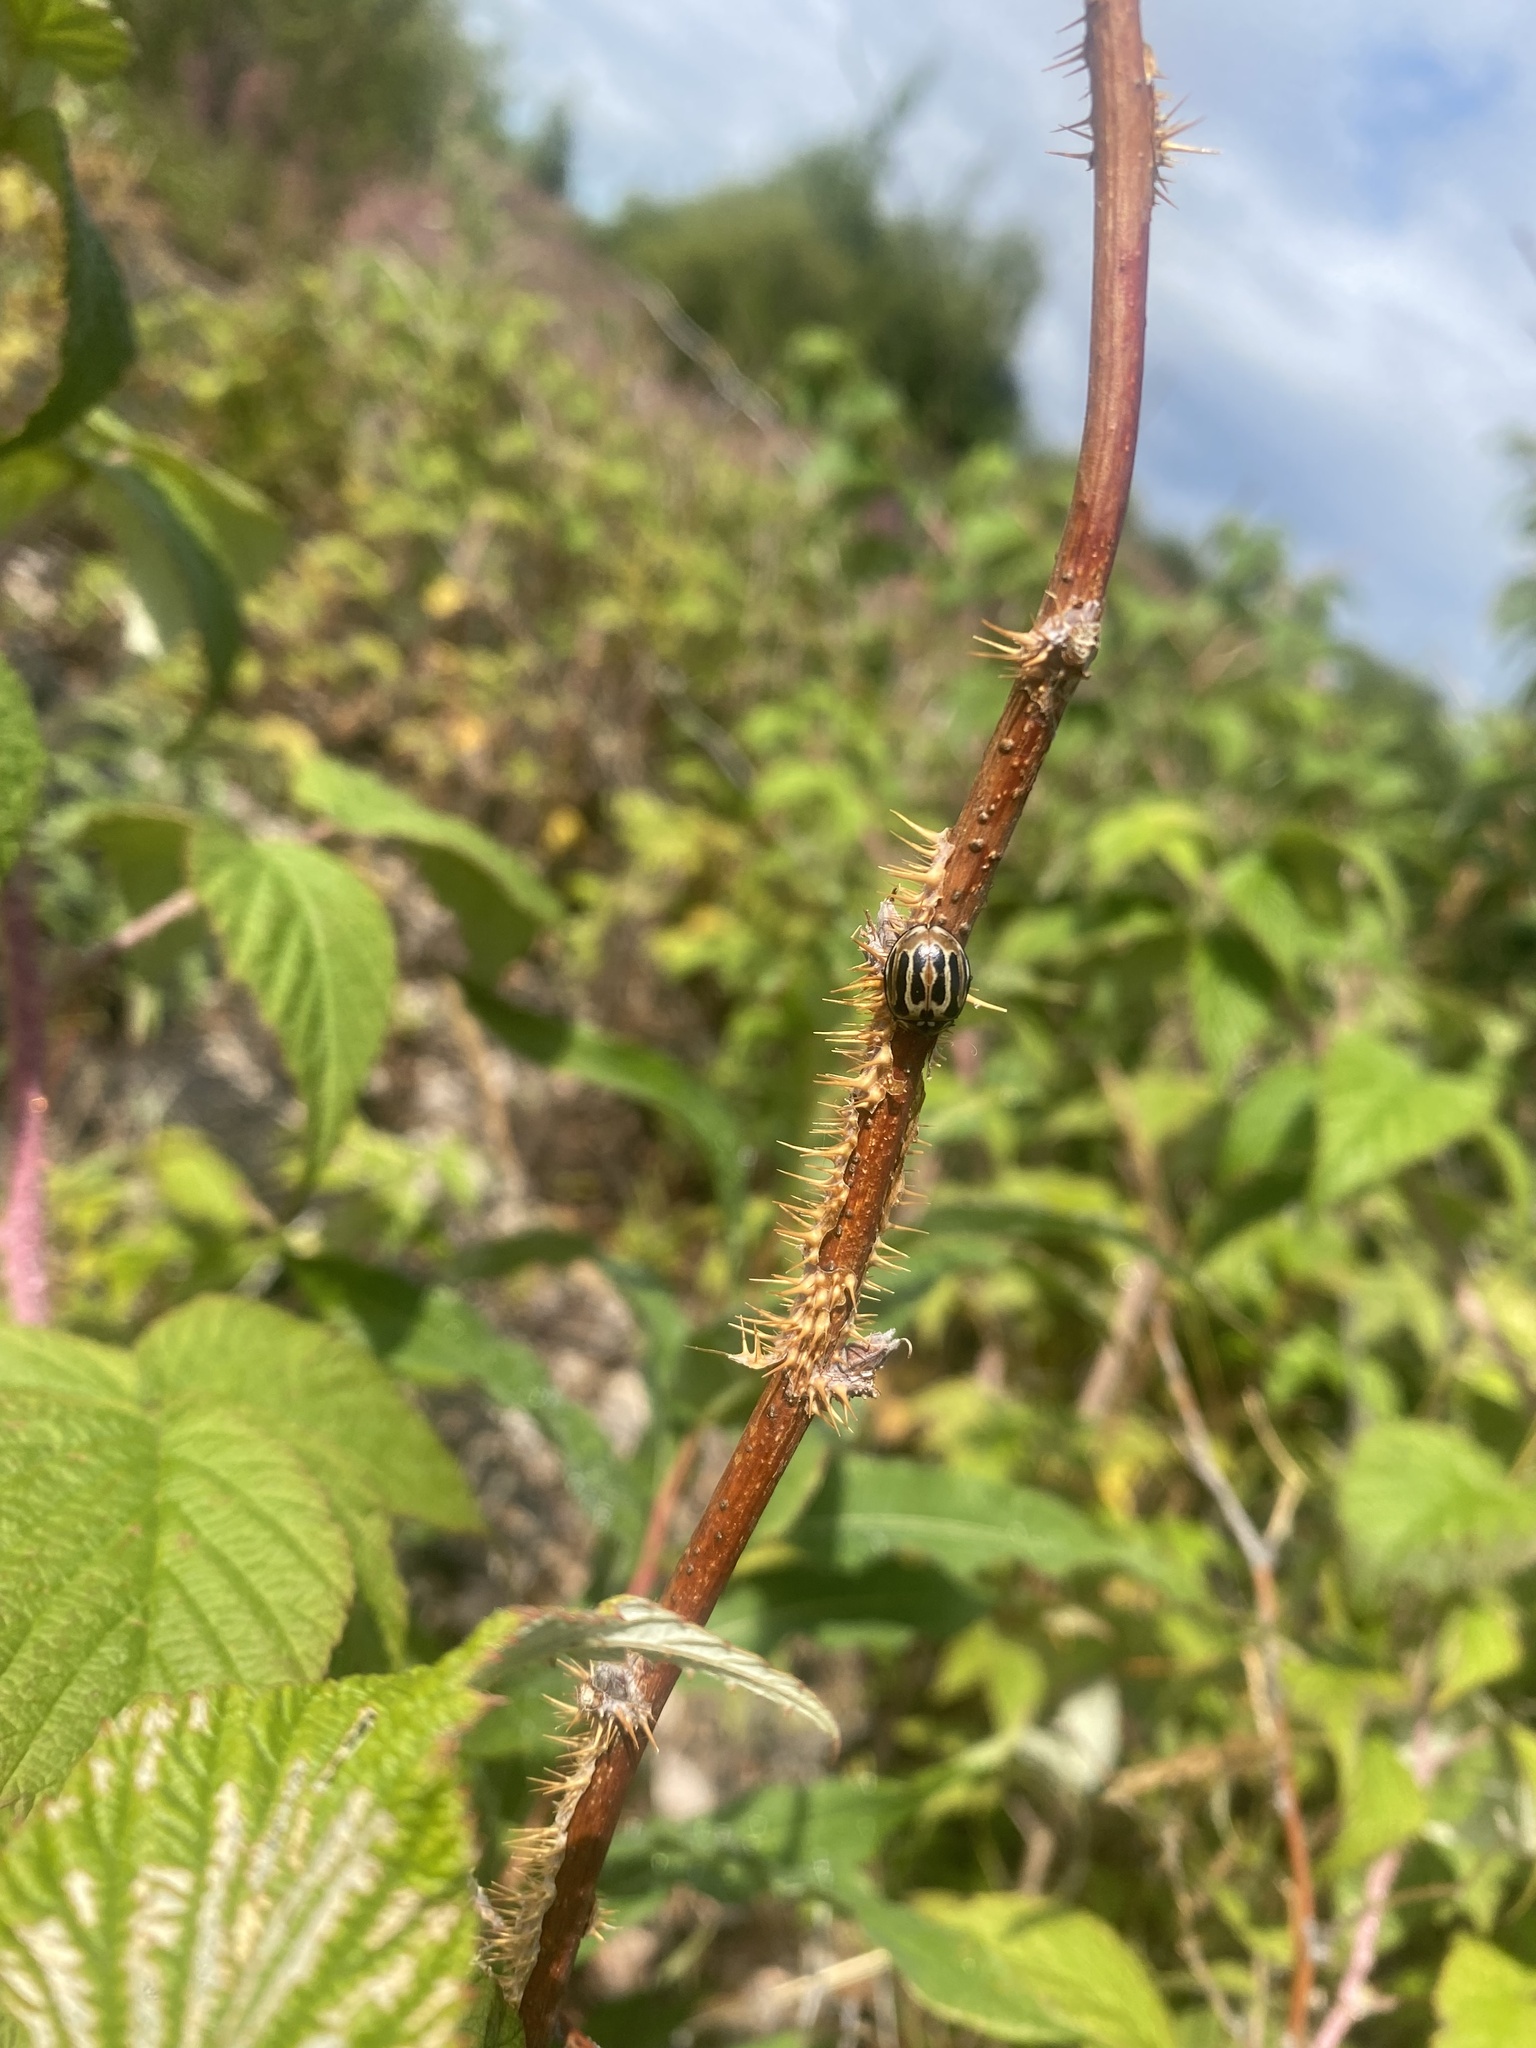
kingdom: Animalia
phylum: Arthropoda
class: Insecta
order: Coleoptera
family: Coccinellidae
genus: Anatis
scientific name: Anatis ocellata
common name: Eyed ladybird
